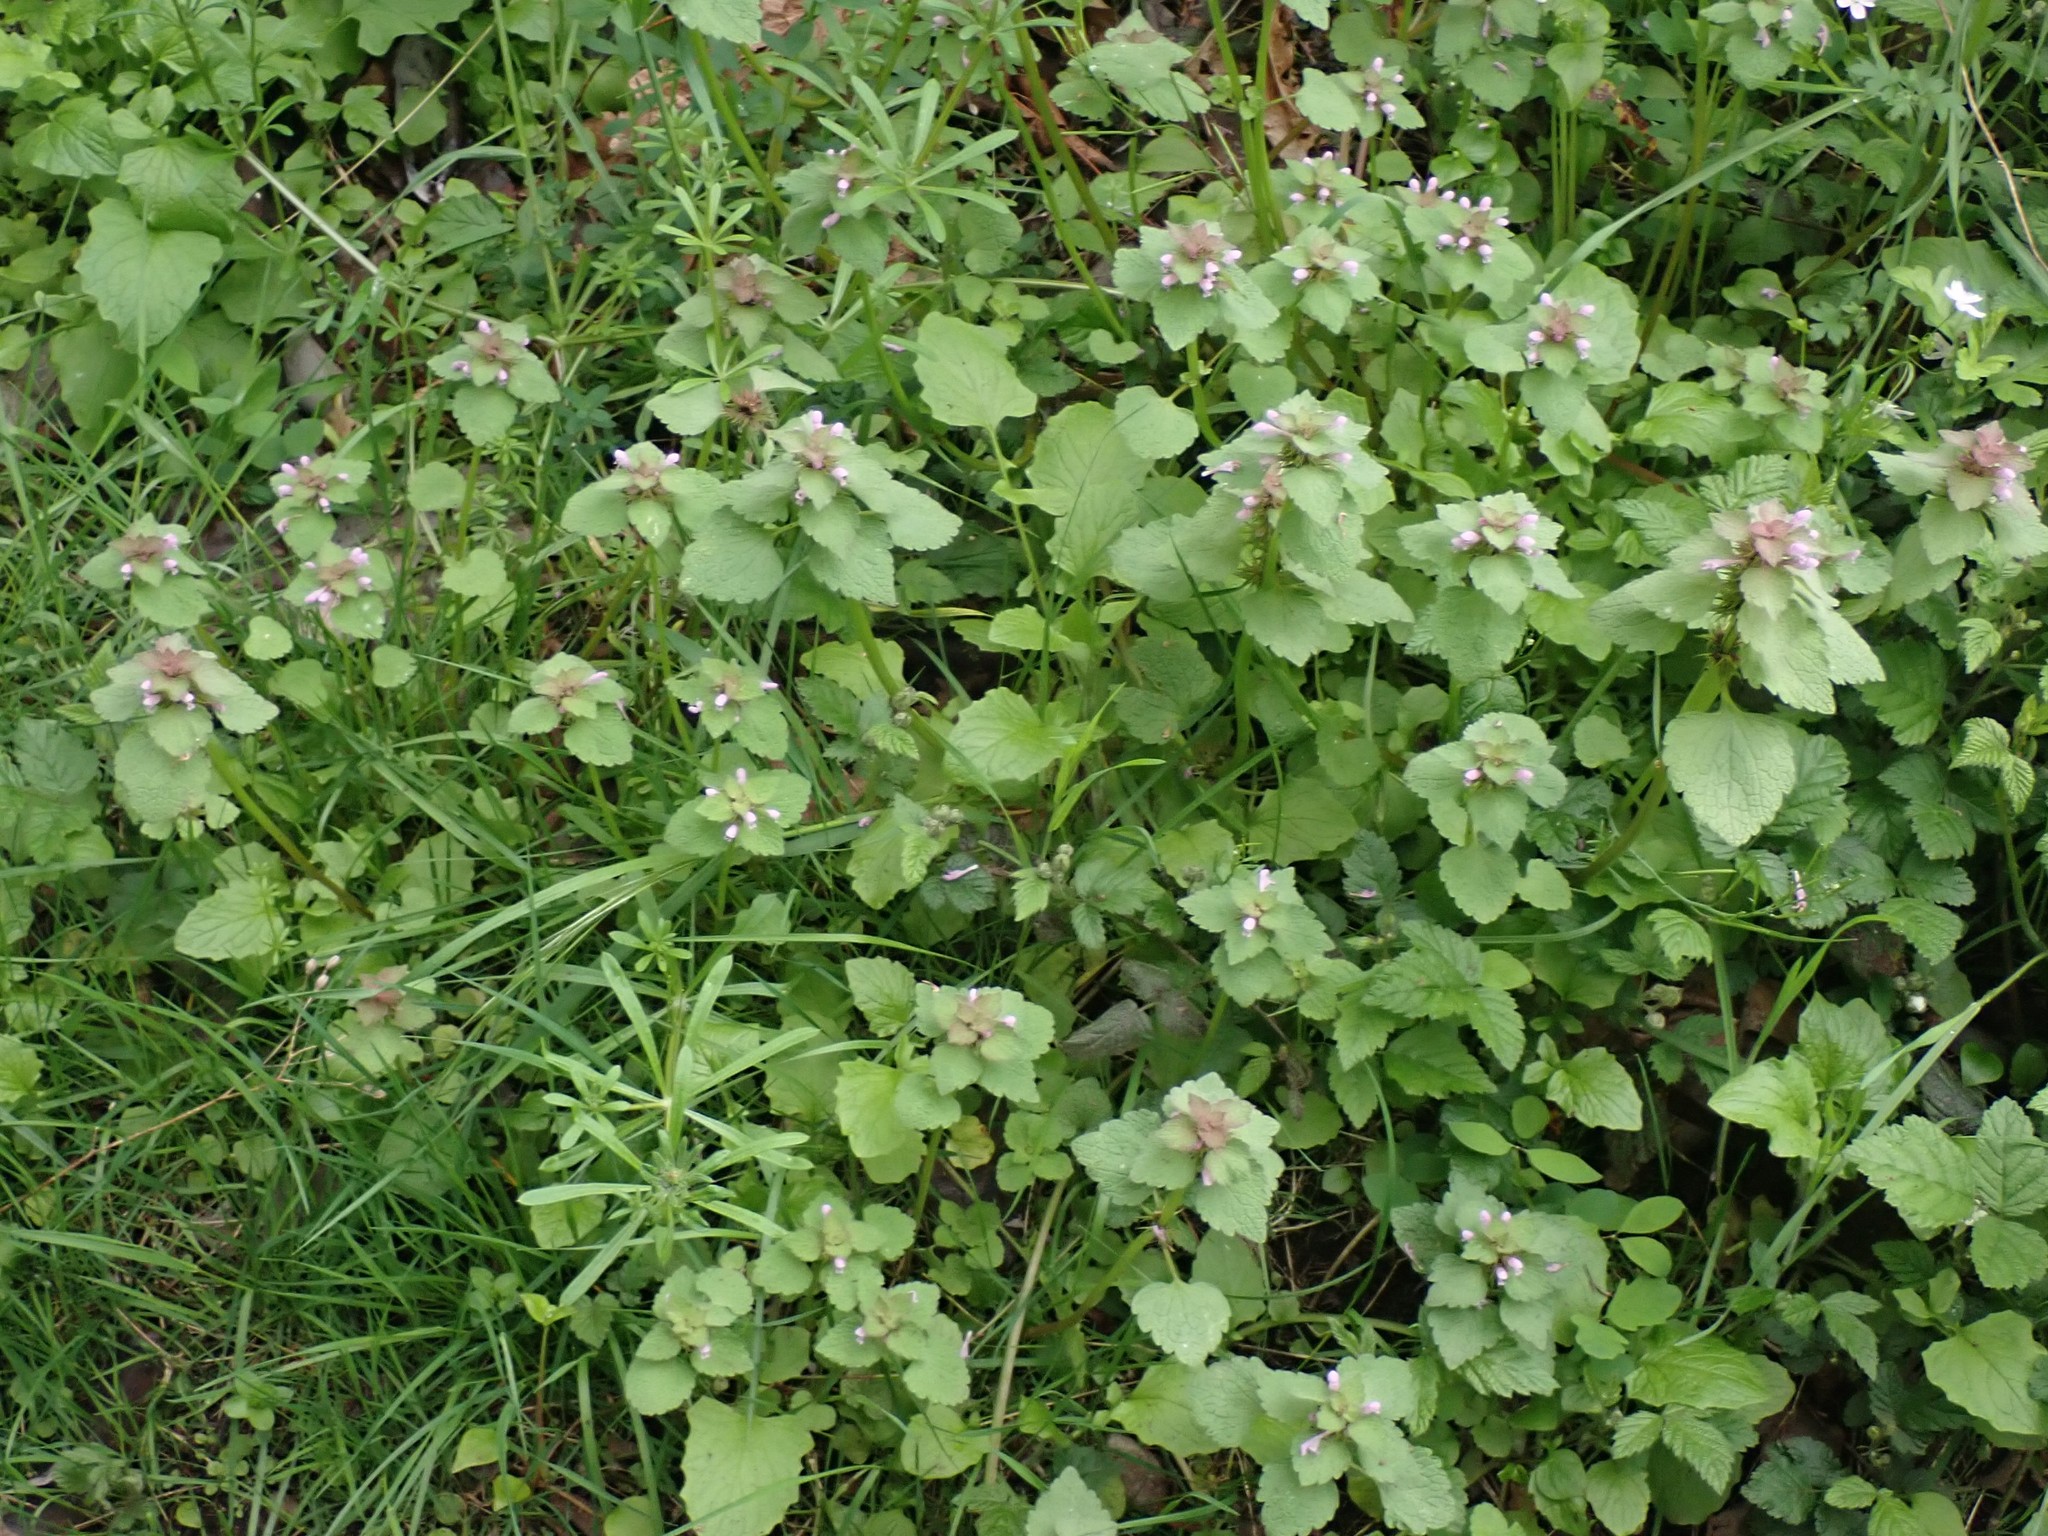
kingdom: Plantae
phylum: Tracheophyta
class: Magnoliopsida
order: Lamiales
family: Lamiaceae
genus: Lamium
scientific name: Lamium purpureum
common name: Red dead-nettle
